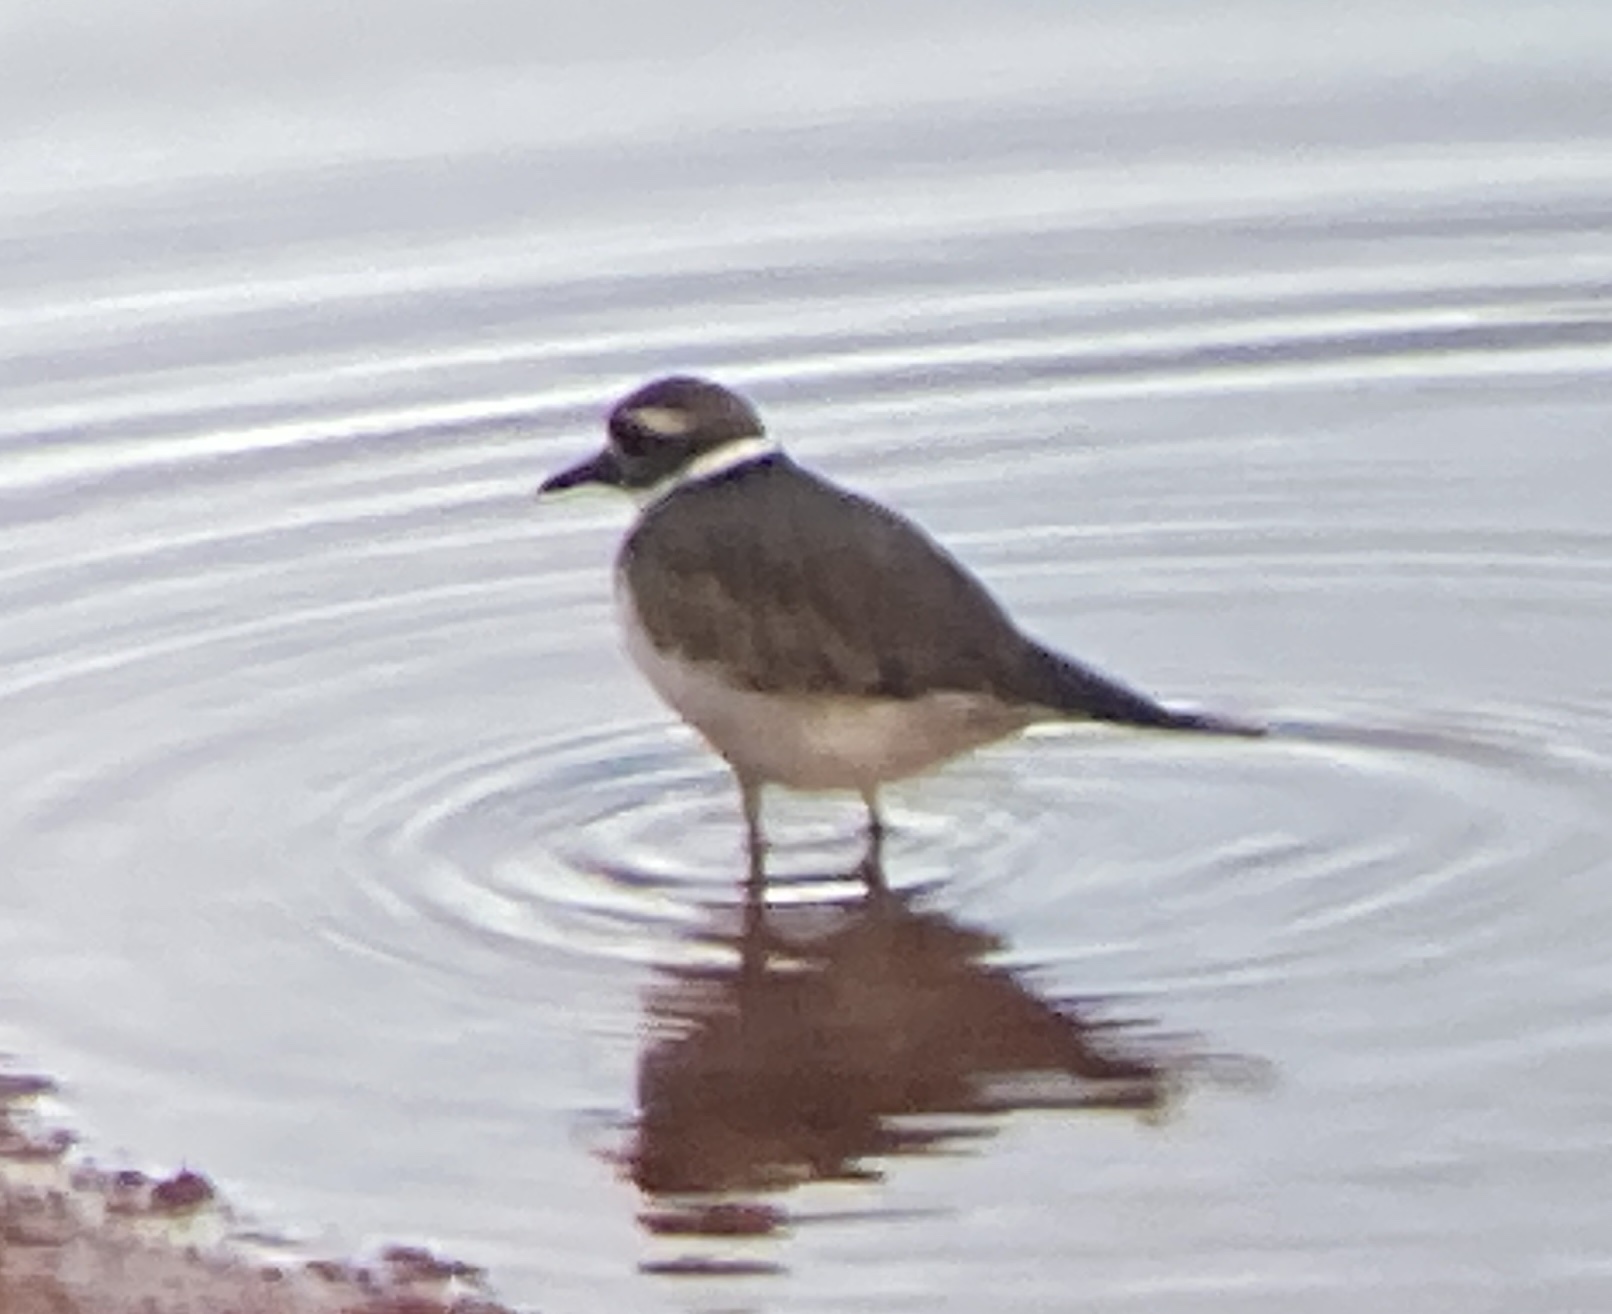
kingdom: Animalia
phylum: Chordata
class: Aves
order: Charadriiformes
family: Charadriidae
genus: Charadrius
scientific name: Charadrius vociferus
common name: Killdeer
